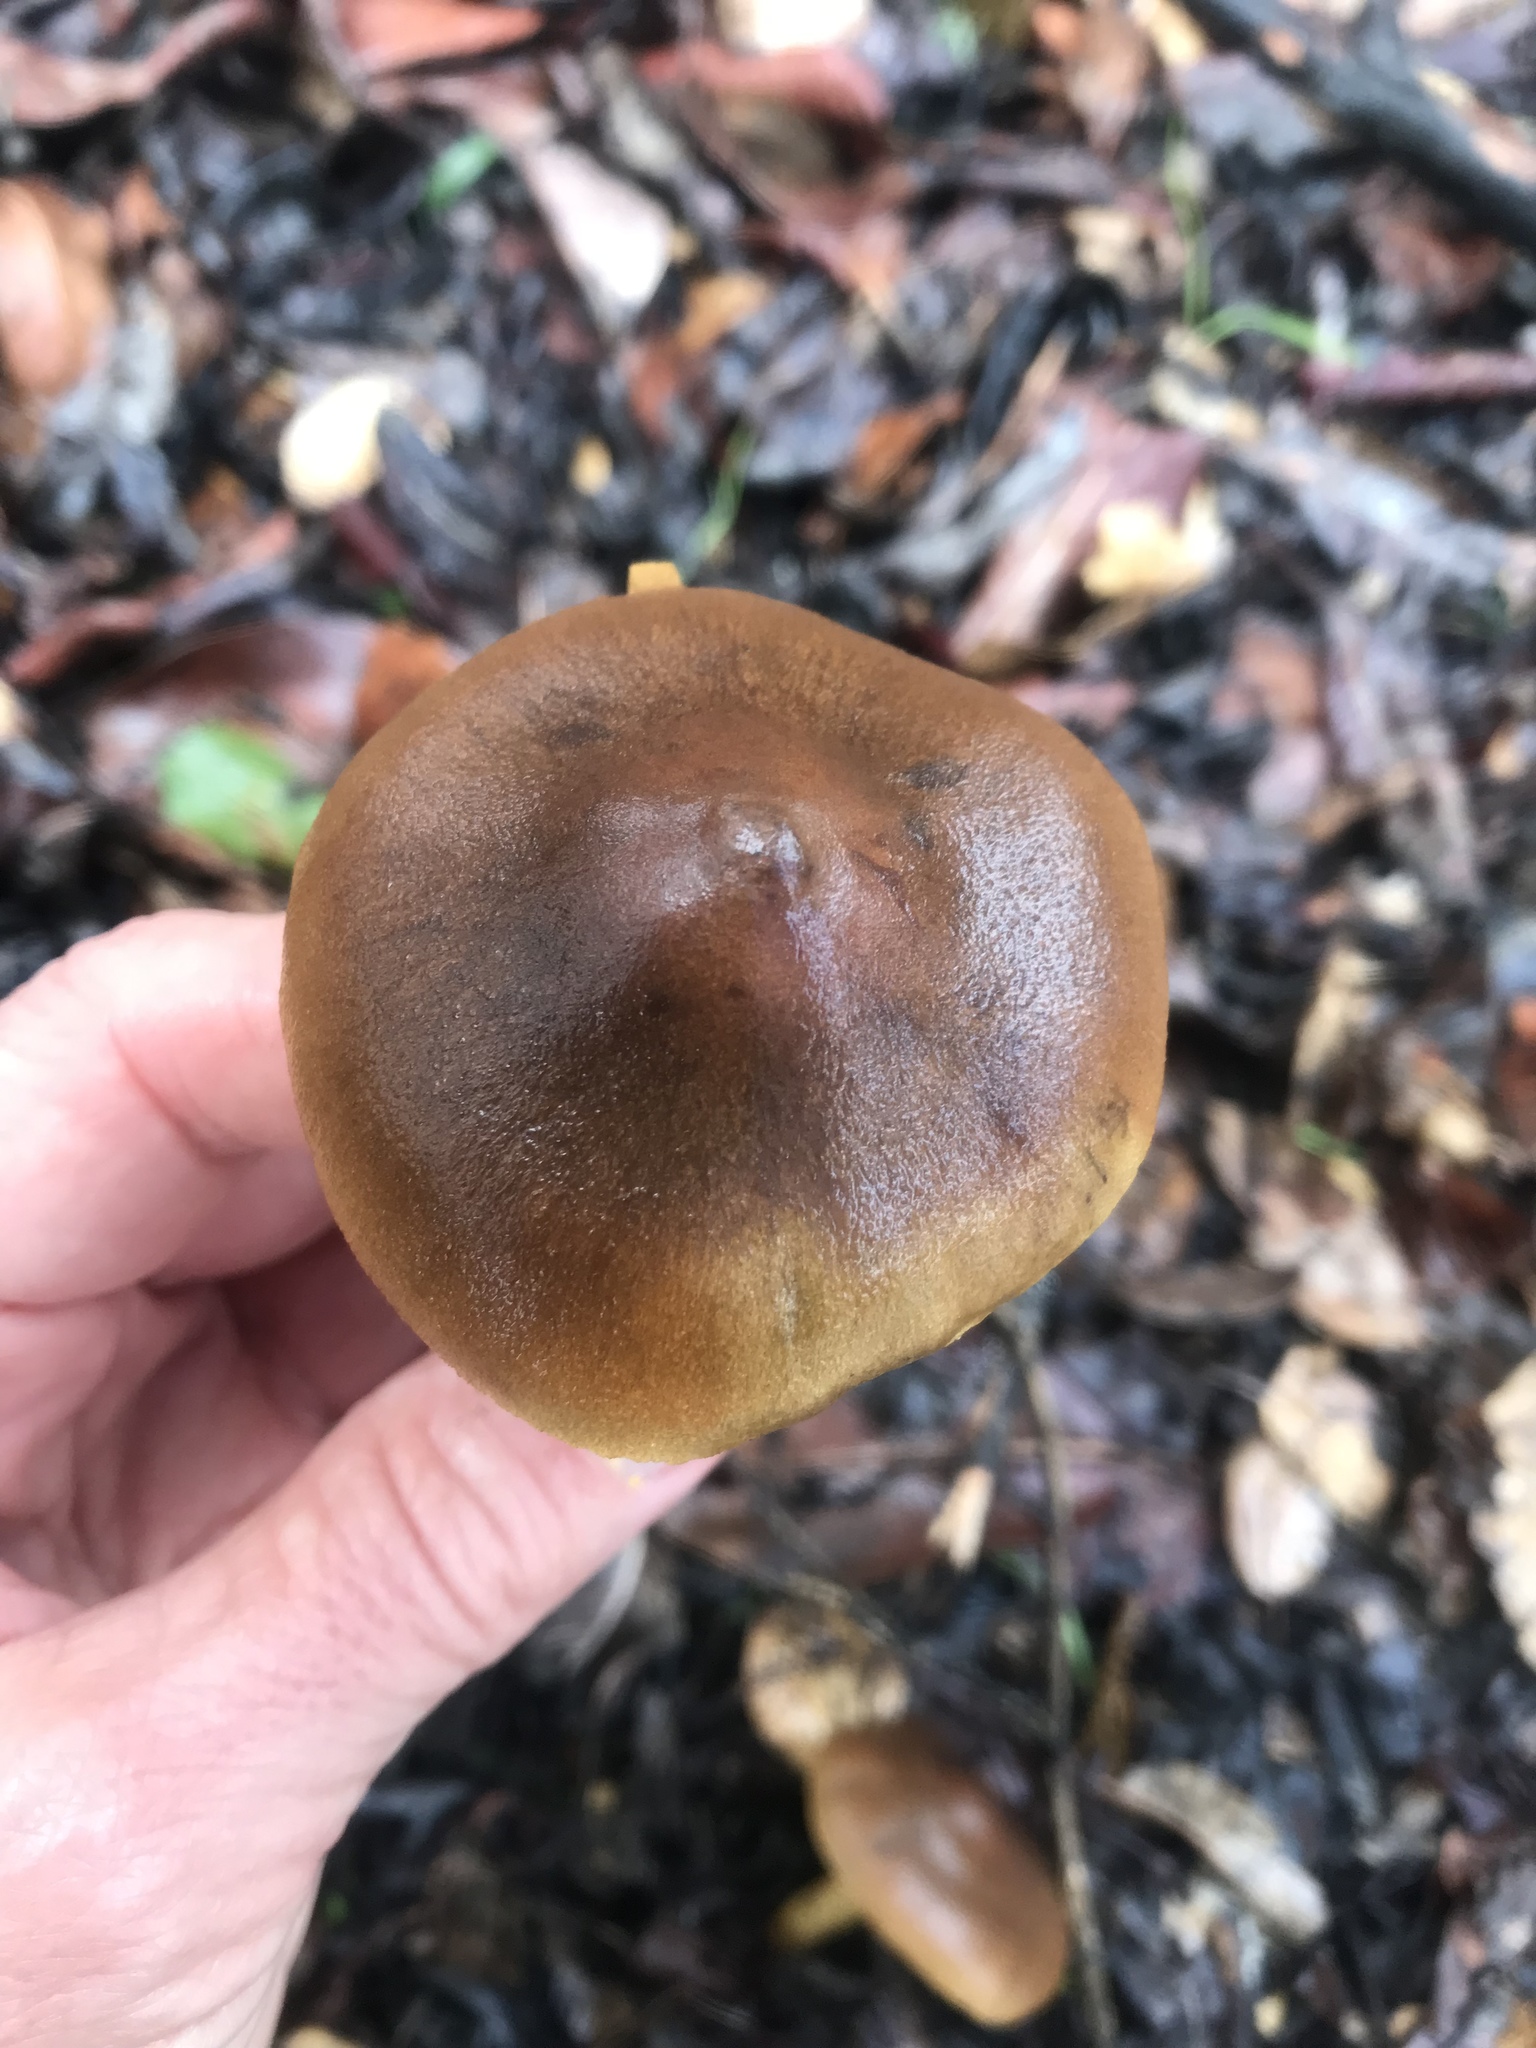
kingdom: Fungi
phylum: Basidiomycota
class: Agaricomycetes
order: Agaricales
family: Cortinariaceae
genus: Cortinarius
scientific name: Cortinarius thiersii
